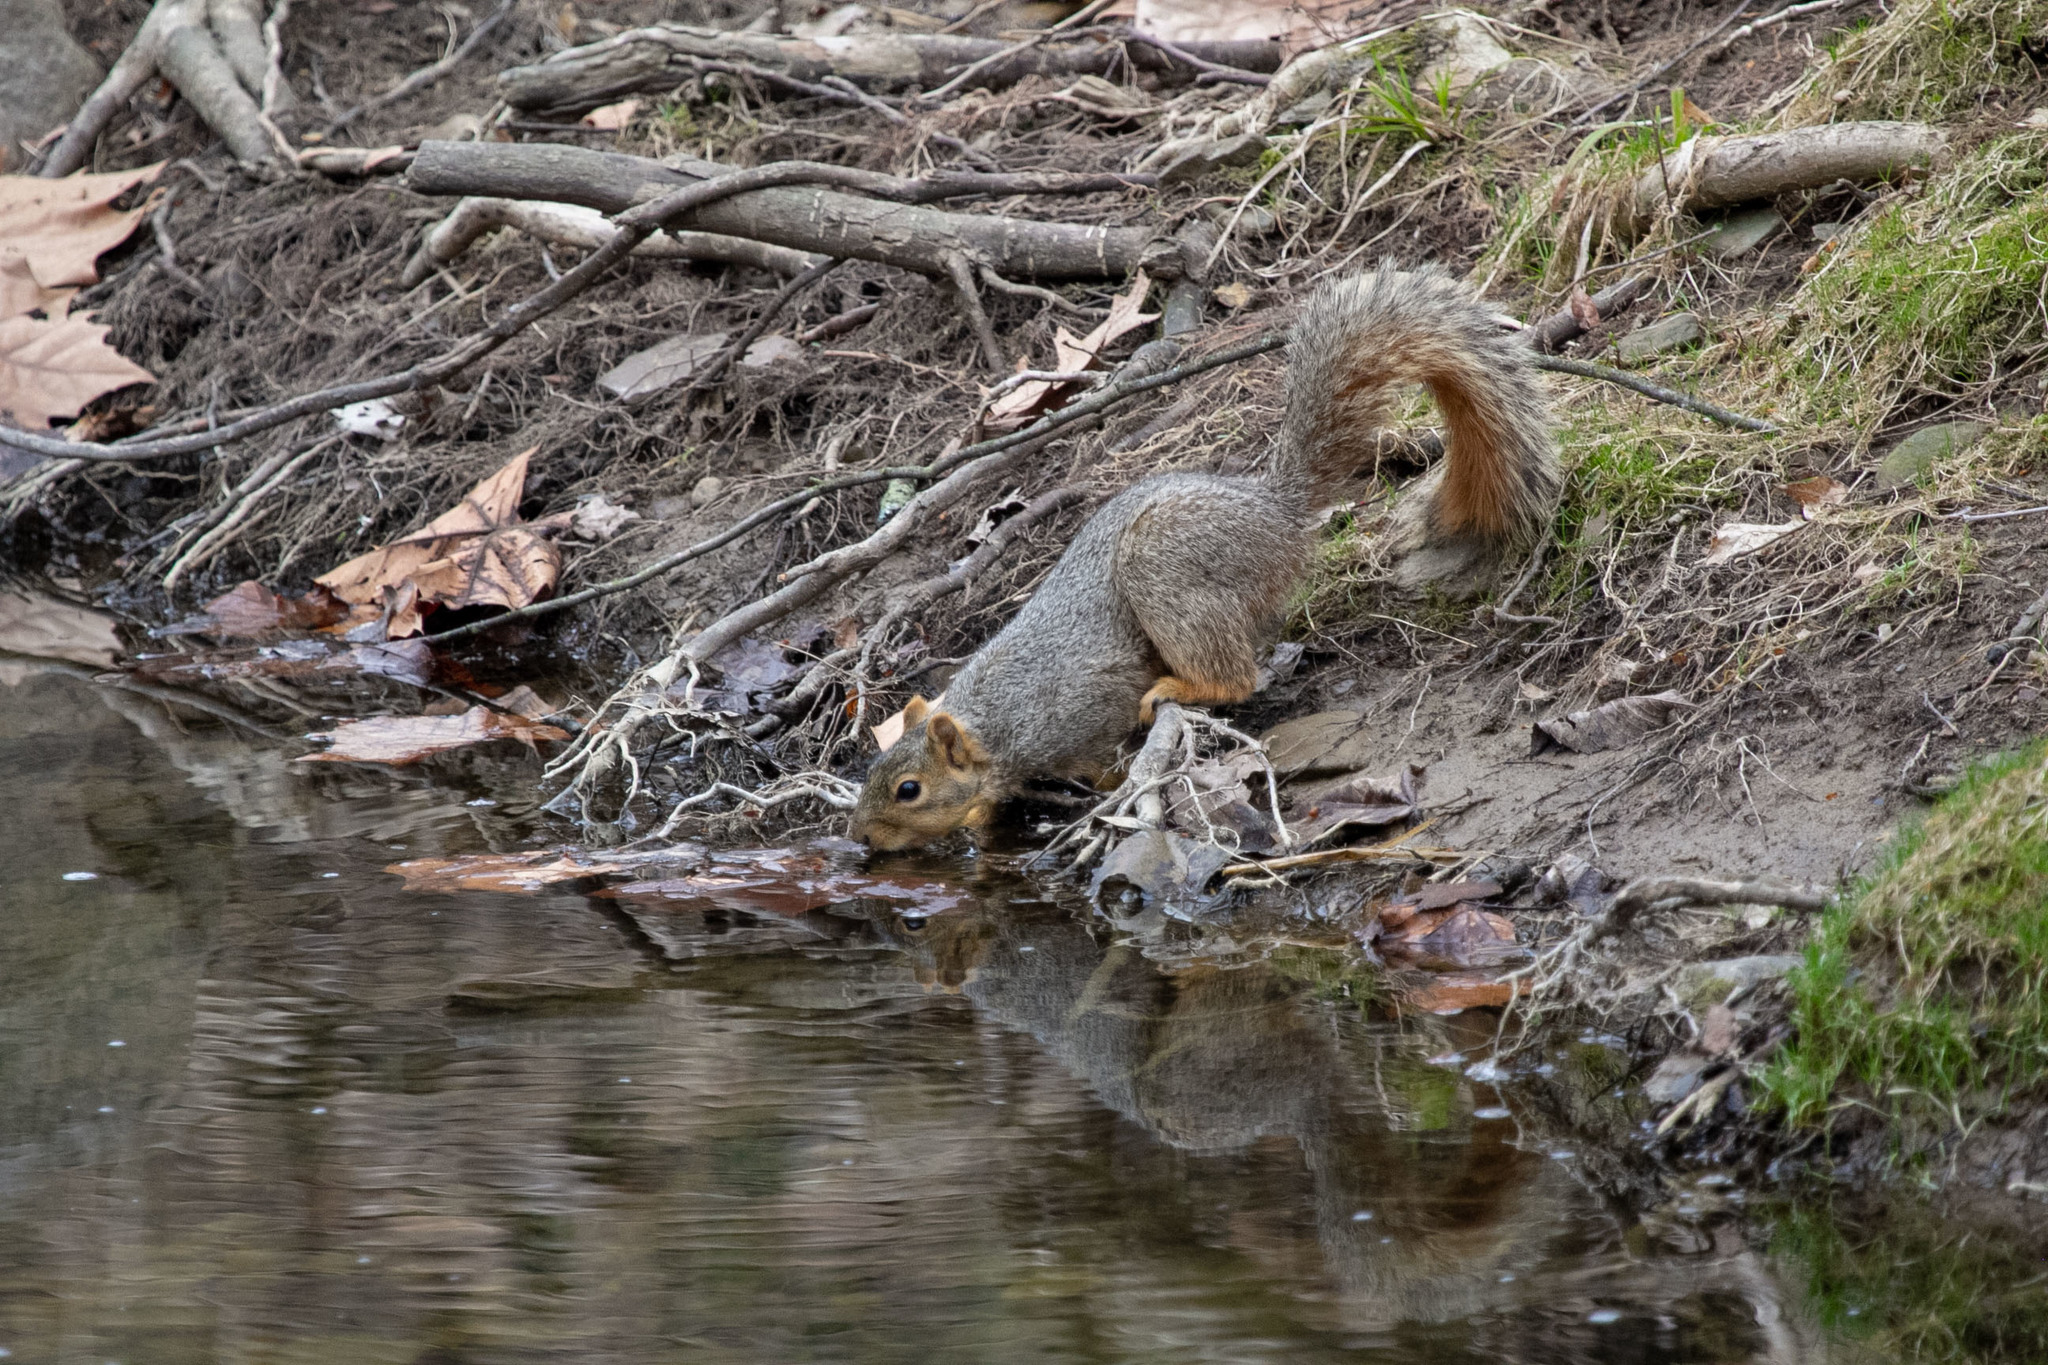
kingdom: Animalia
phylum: Chordata
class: Mammalia
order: Rodentia
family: Sciuridae
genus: Sciurus
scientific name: Sciurus niger
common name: Fox squirrel
